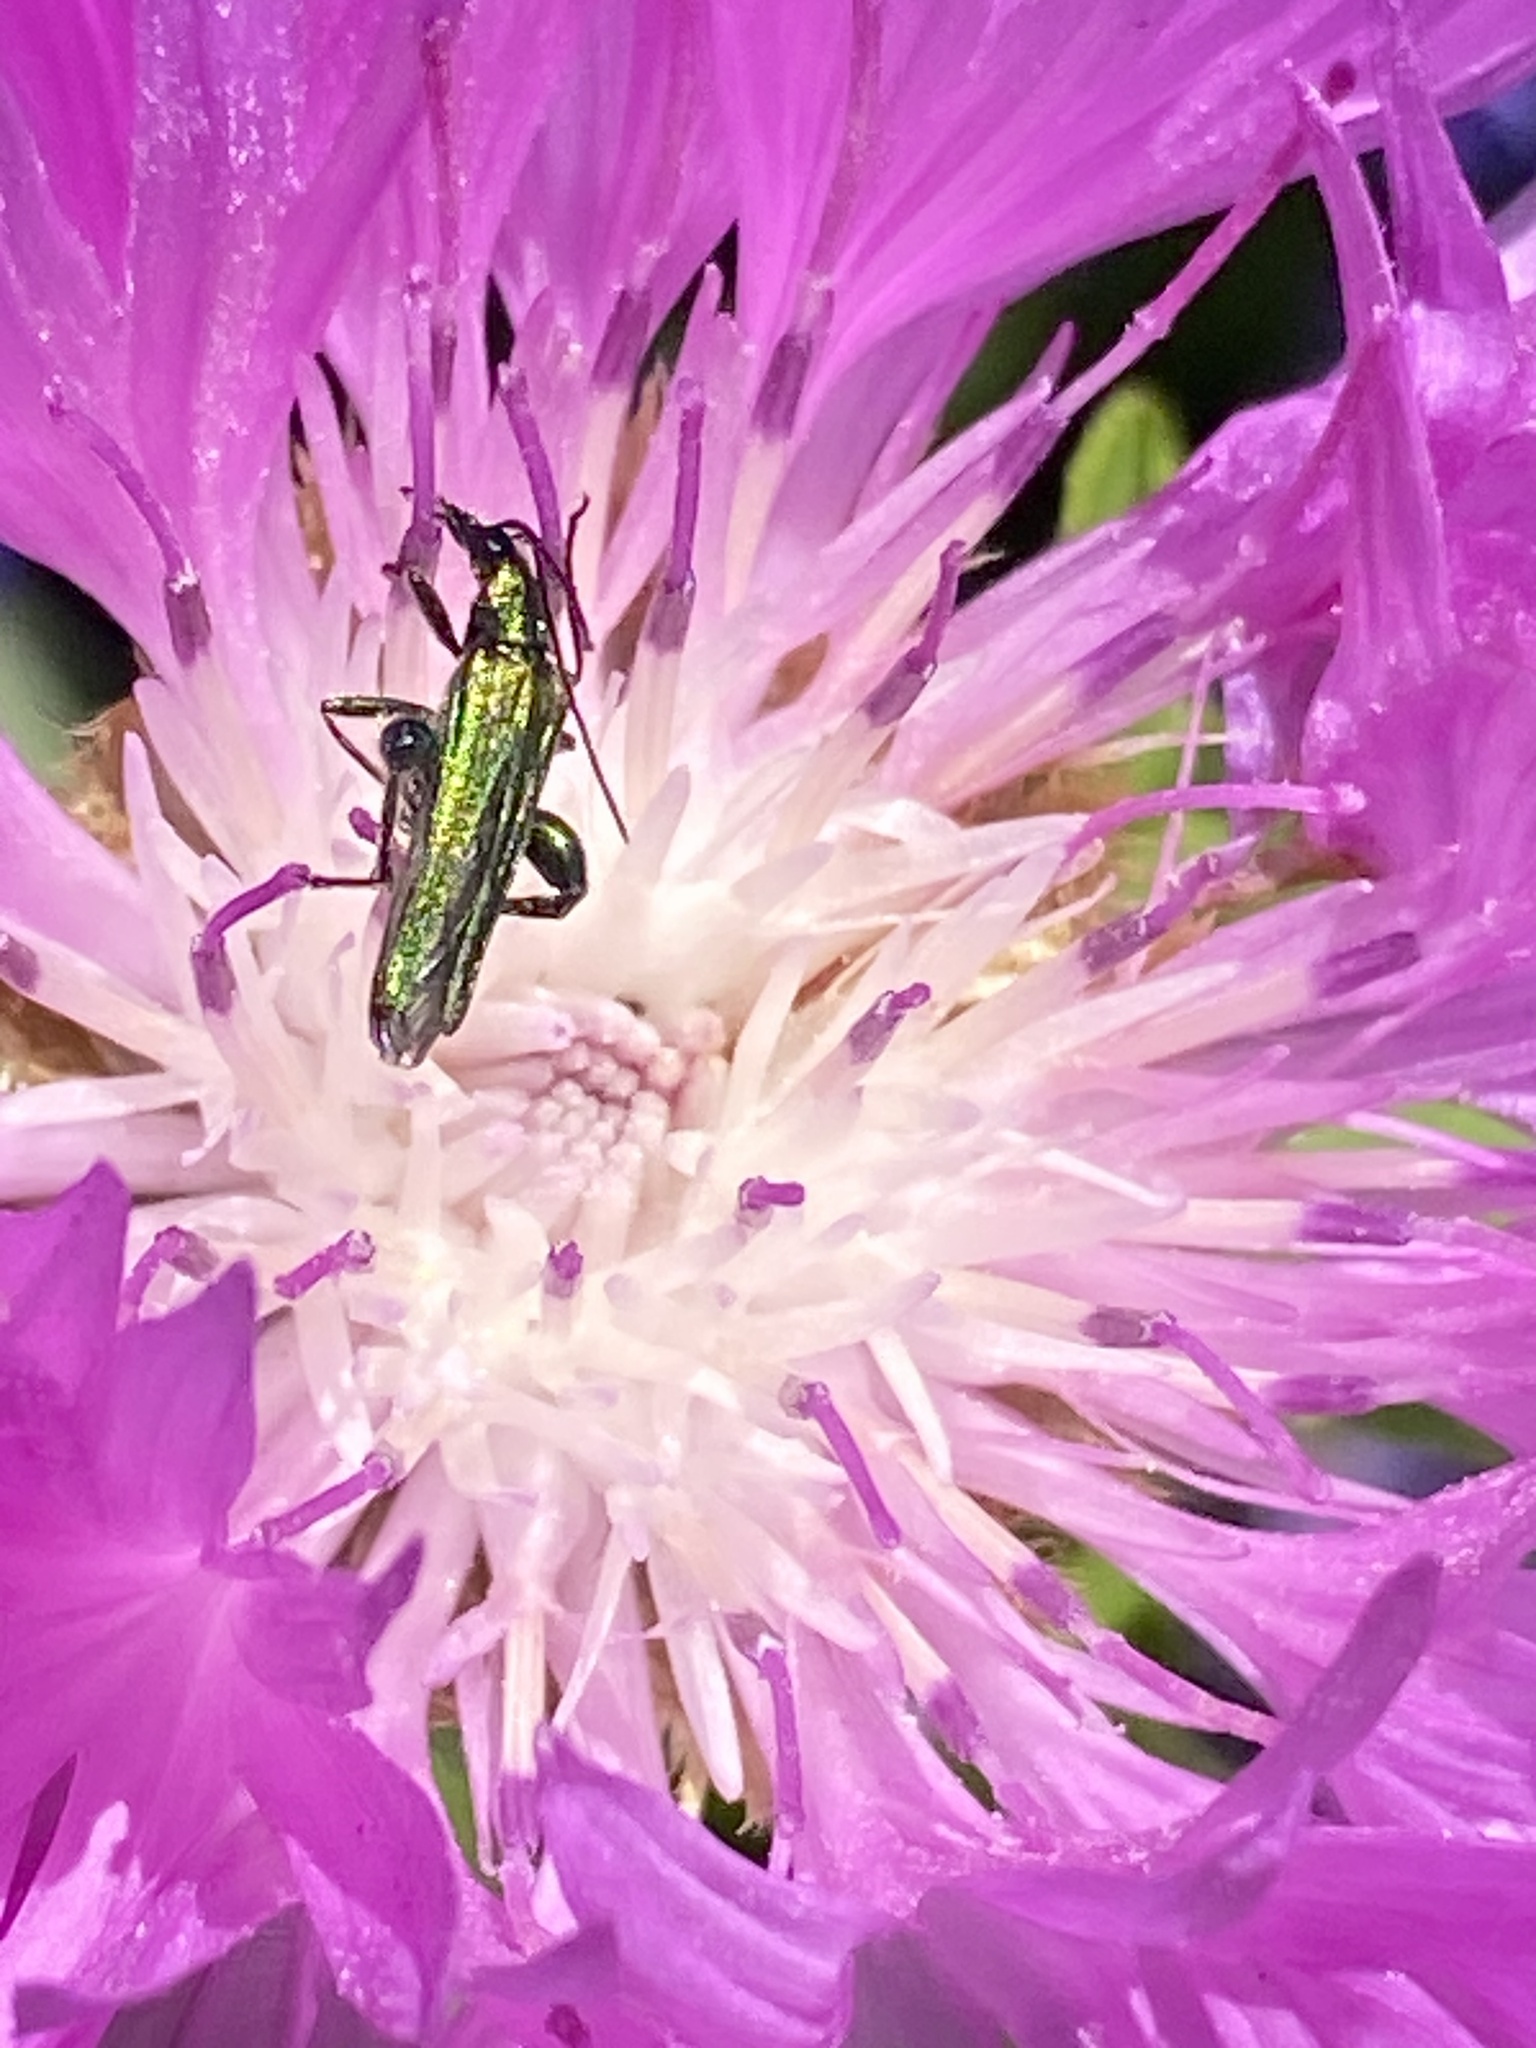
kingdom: Animalia
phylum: Arthropoda
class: Insecta
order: Coleoptera
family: Oedemeridae
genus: Oedemera
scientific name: Oedemera nobilis
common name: Swollen-thighed beetle
